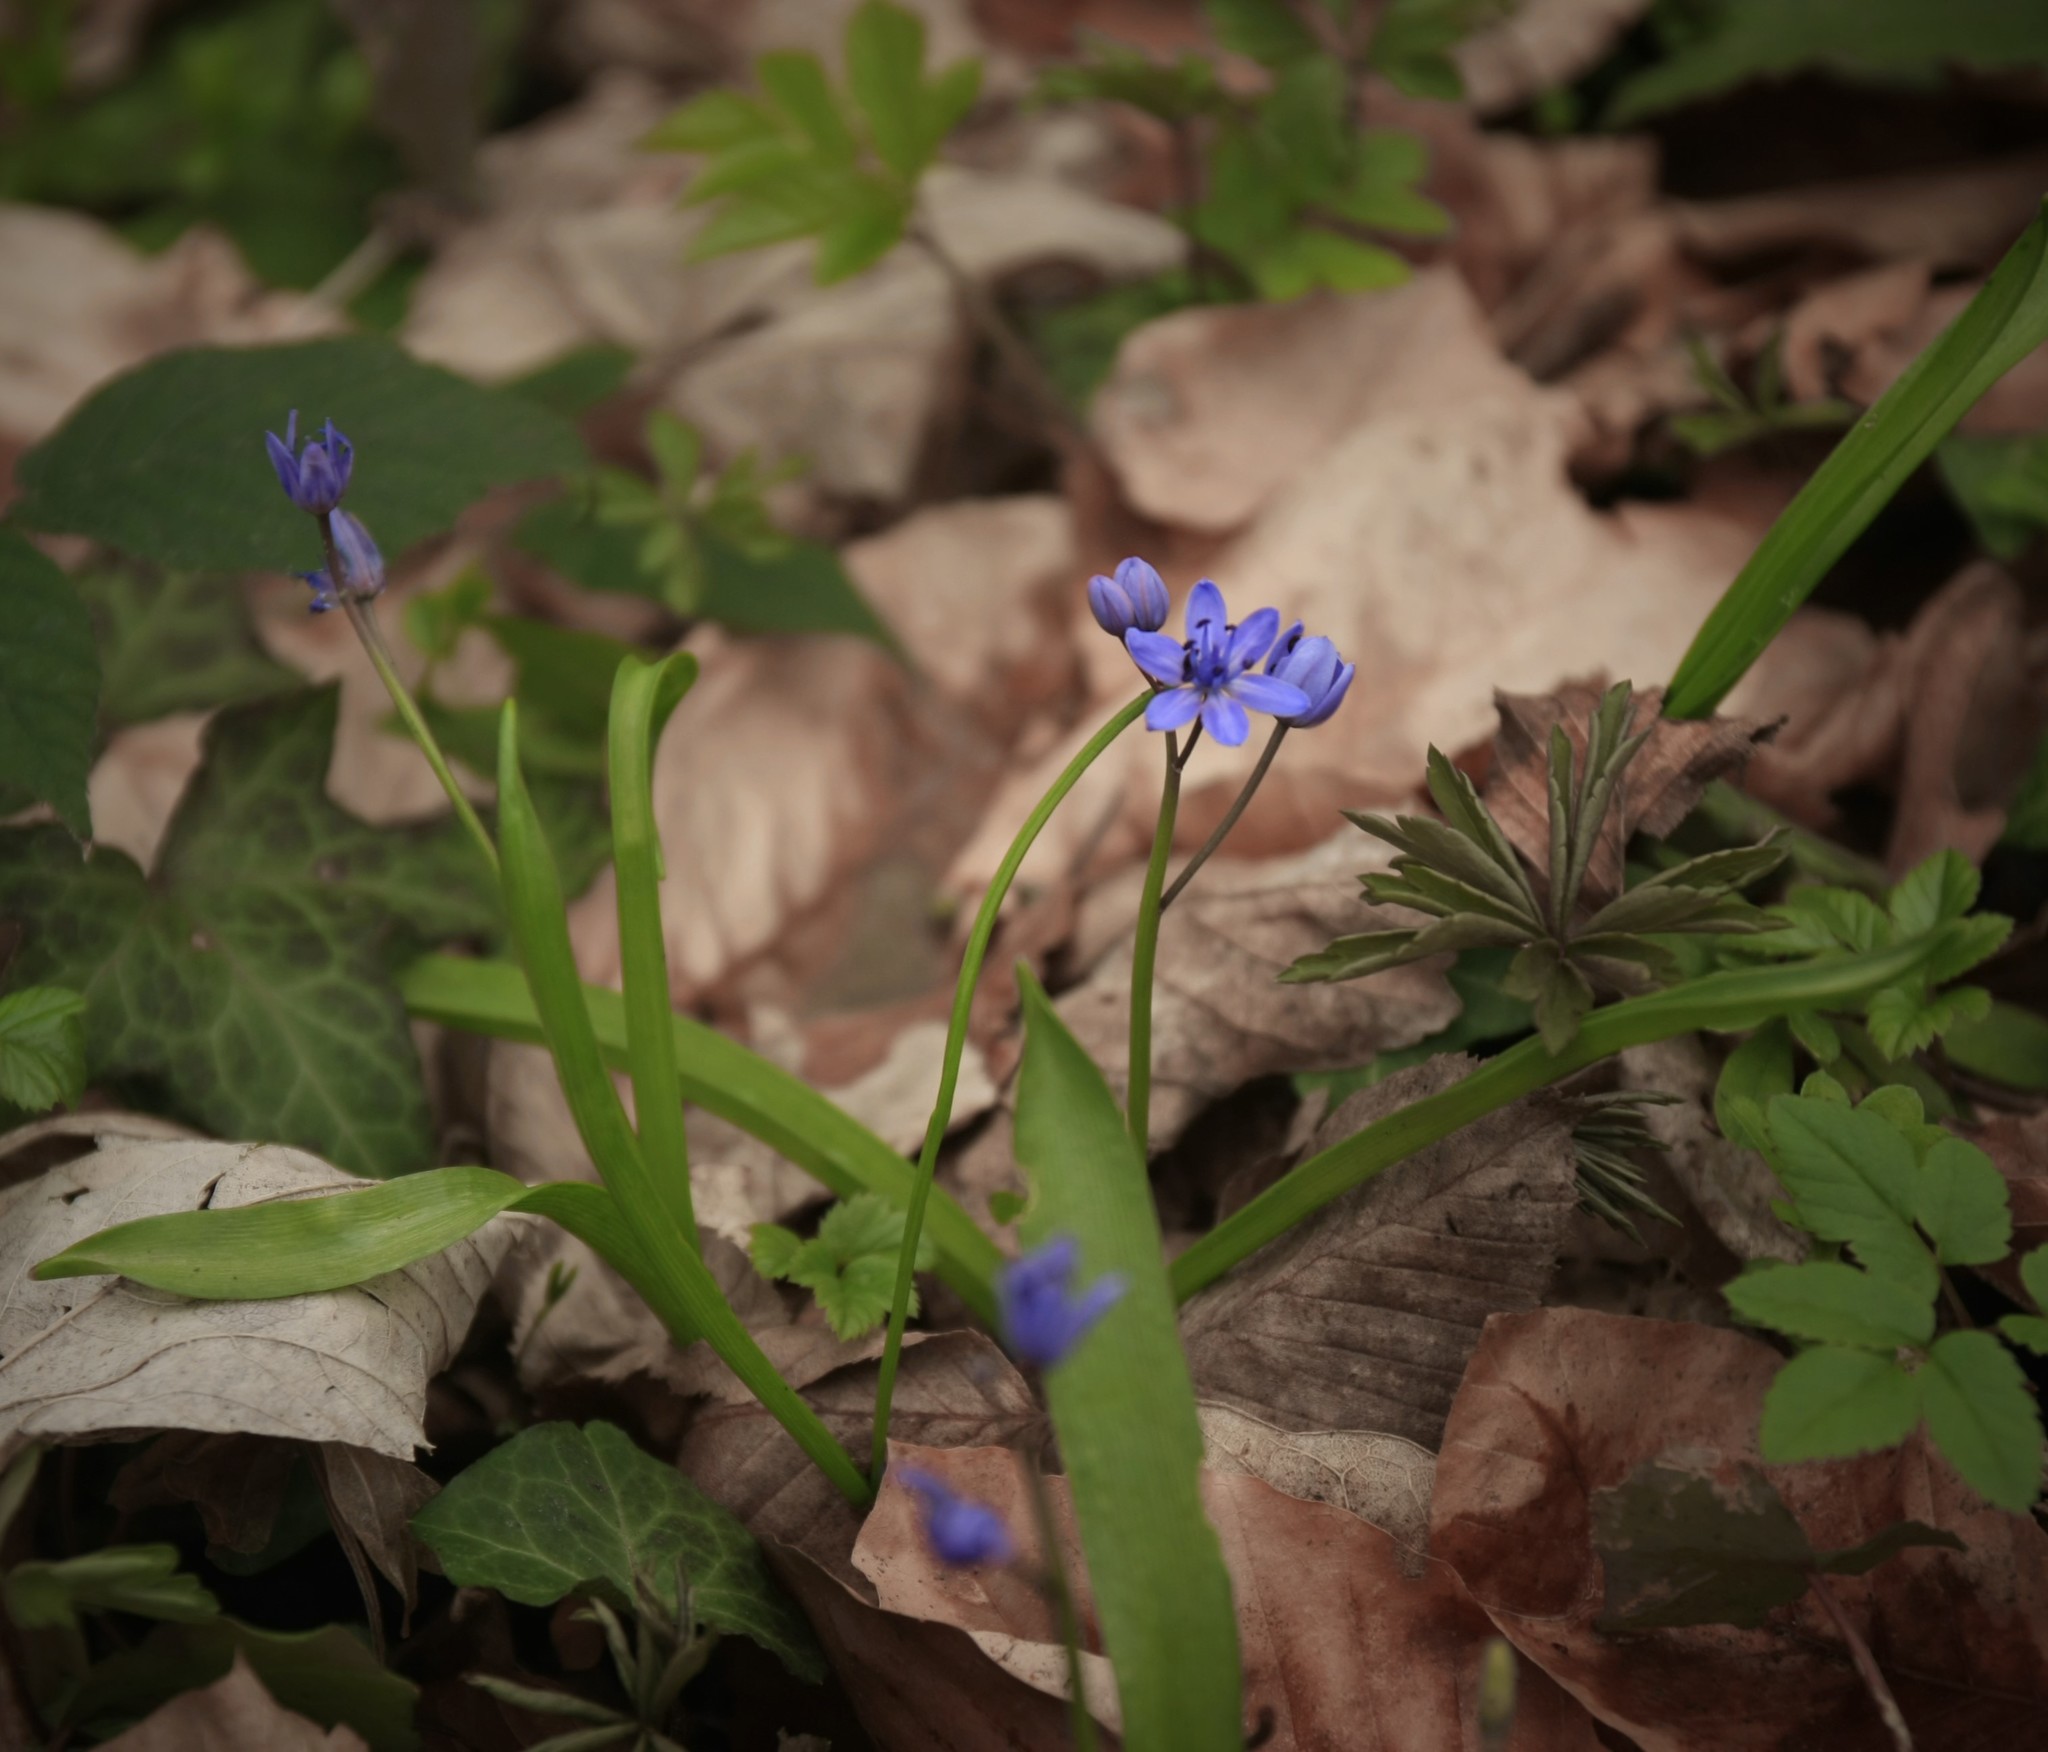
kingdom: Plantae
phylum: Tracheophyta
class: Liliopsida
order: Asparagales
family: Asparagaceae
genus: Scilla
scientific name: Scilla bifolia
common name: Alpine squill
